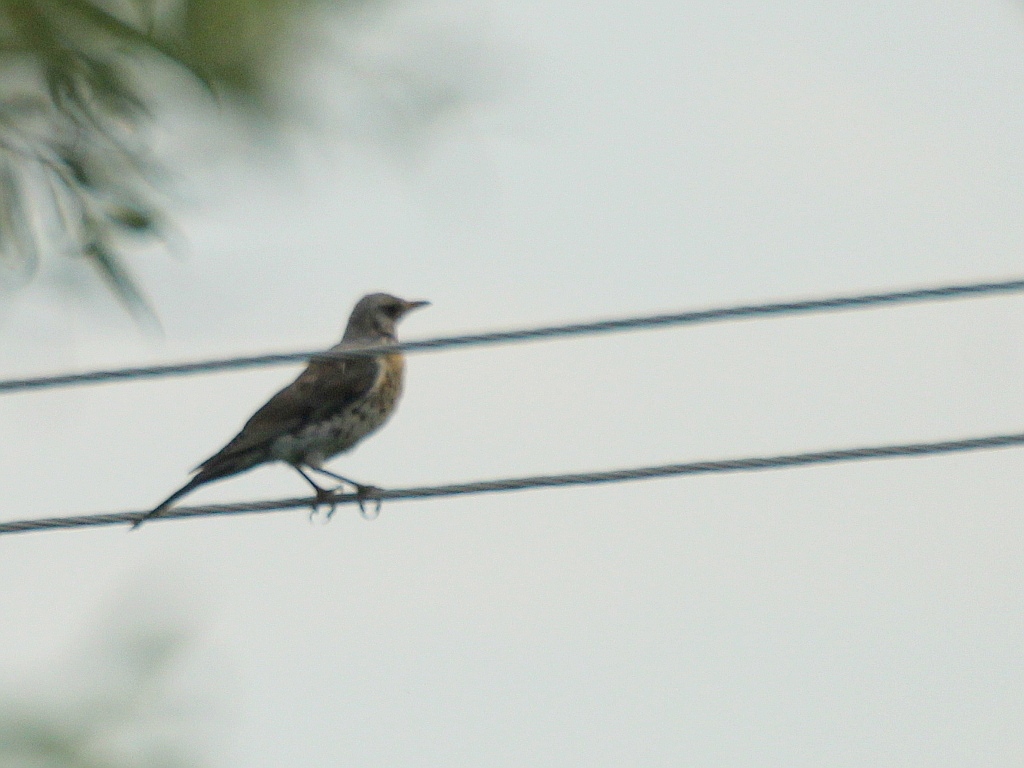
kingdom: Animalia
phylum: Chordata
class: Aves
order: Passeriformes
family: Turdidae
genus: Turdus
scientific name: Turdus pilaris
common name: Fieldfare
